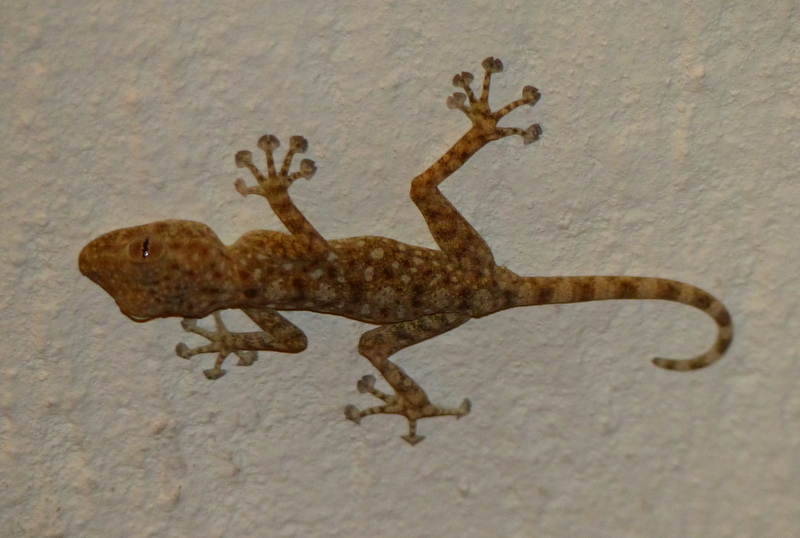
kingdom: Animalia
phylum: Chordata
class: Squamata
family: Phyllodactylidae
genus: Ptyodactylus
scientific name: Ptyodactylus guttatus
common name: Sinai fan-fingered gecko
